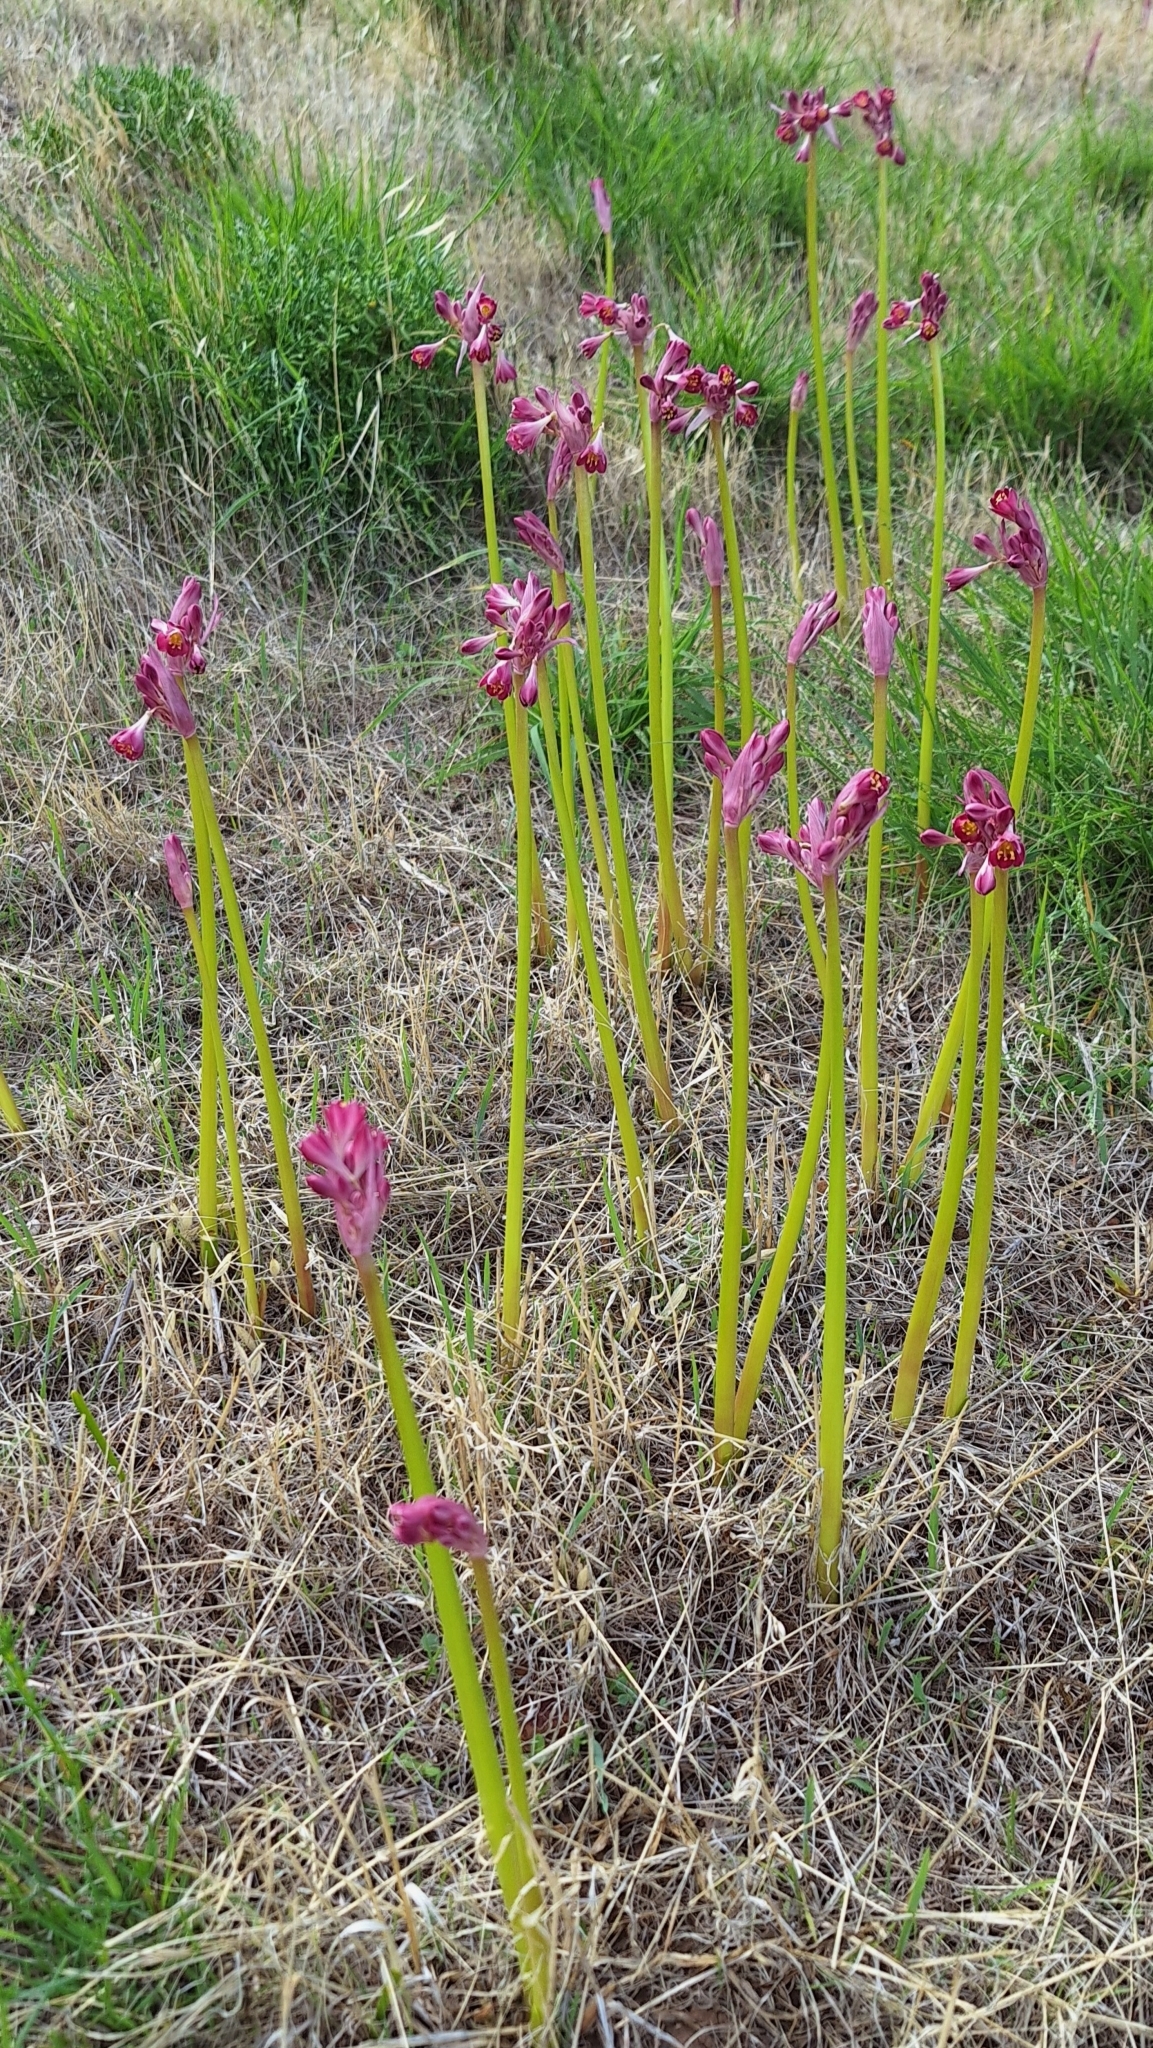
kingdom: Plantae
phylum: Tracheophyta
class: Liliopsida
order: Asparagales
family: Amaryllidaceae
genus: Calostemma
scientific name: Calostemma purpureum
